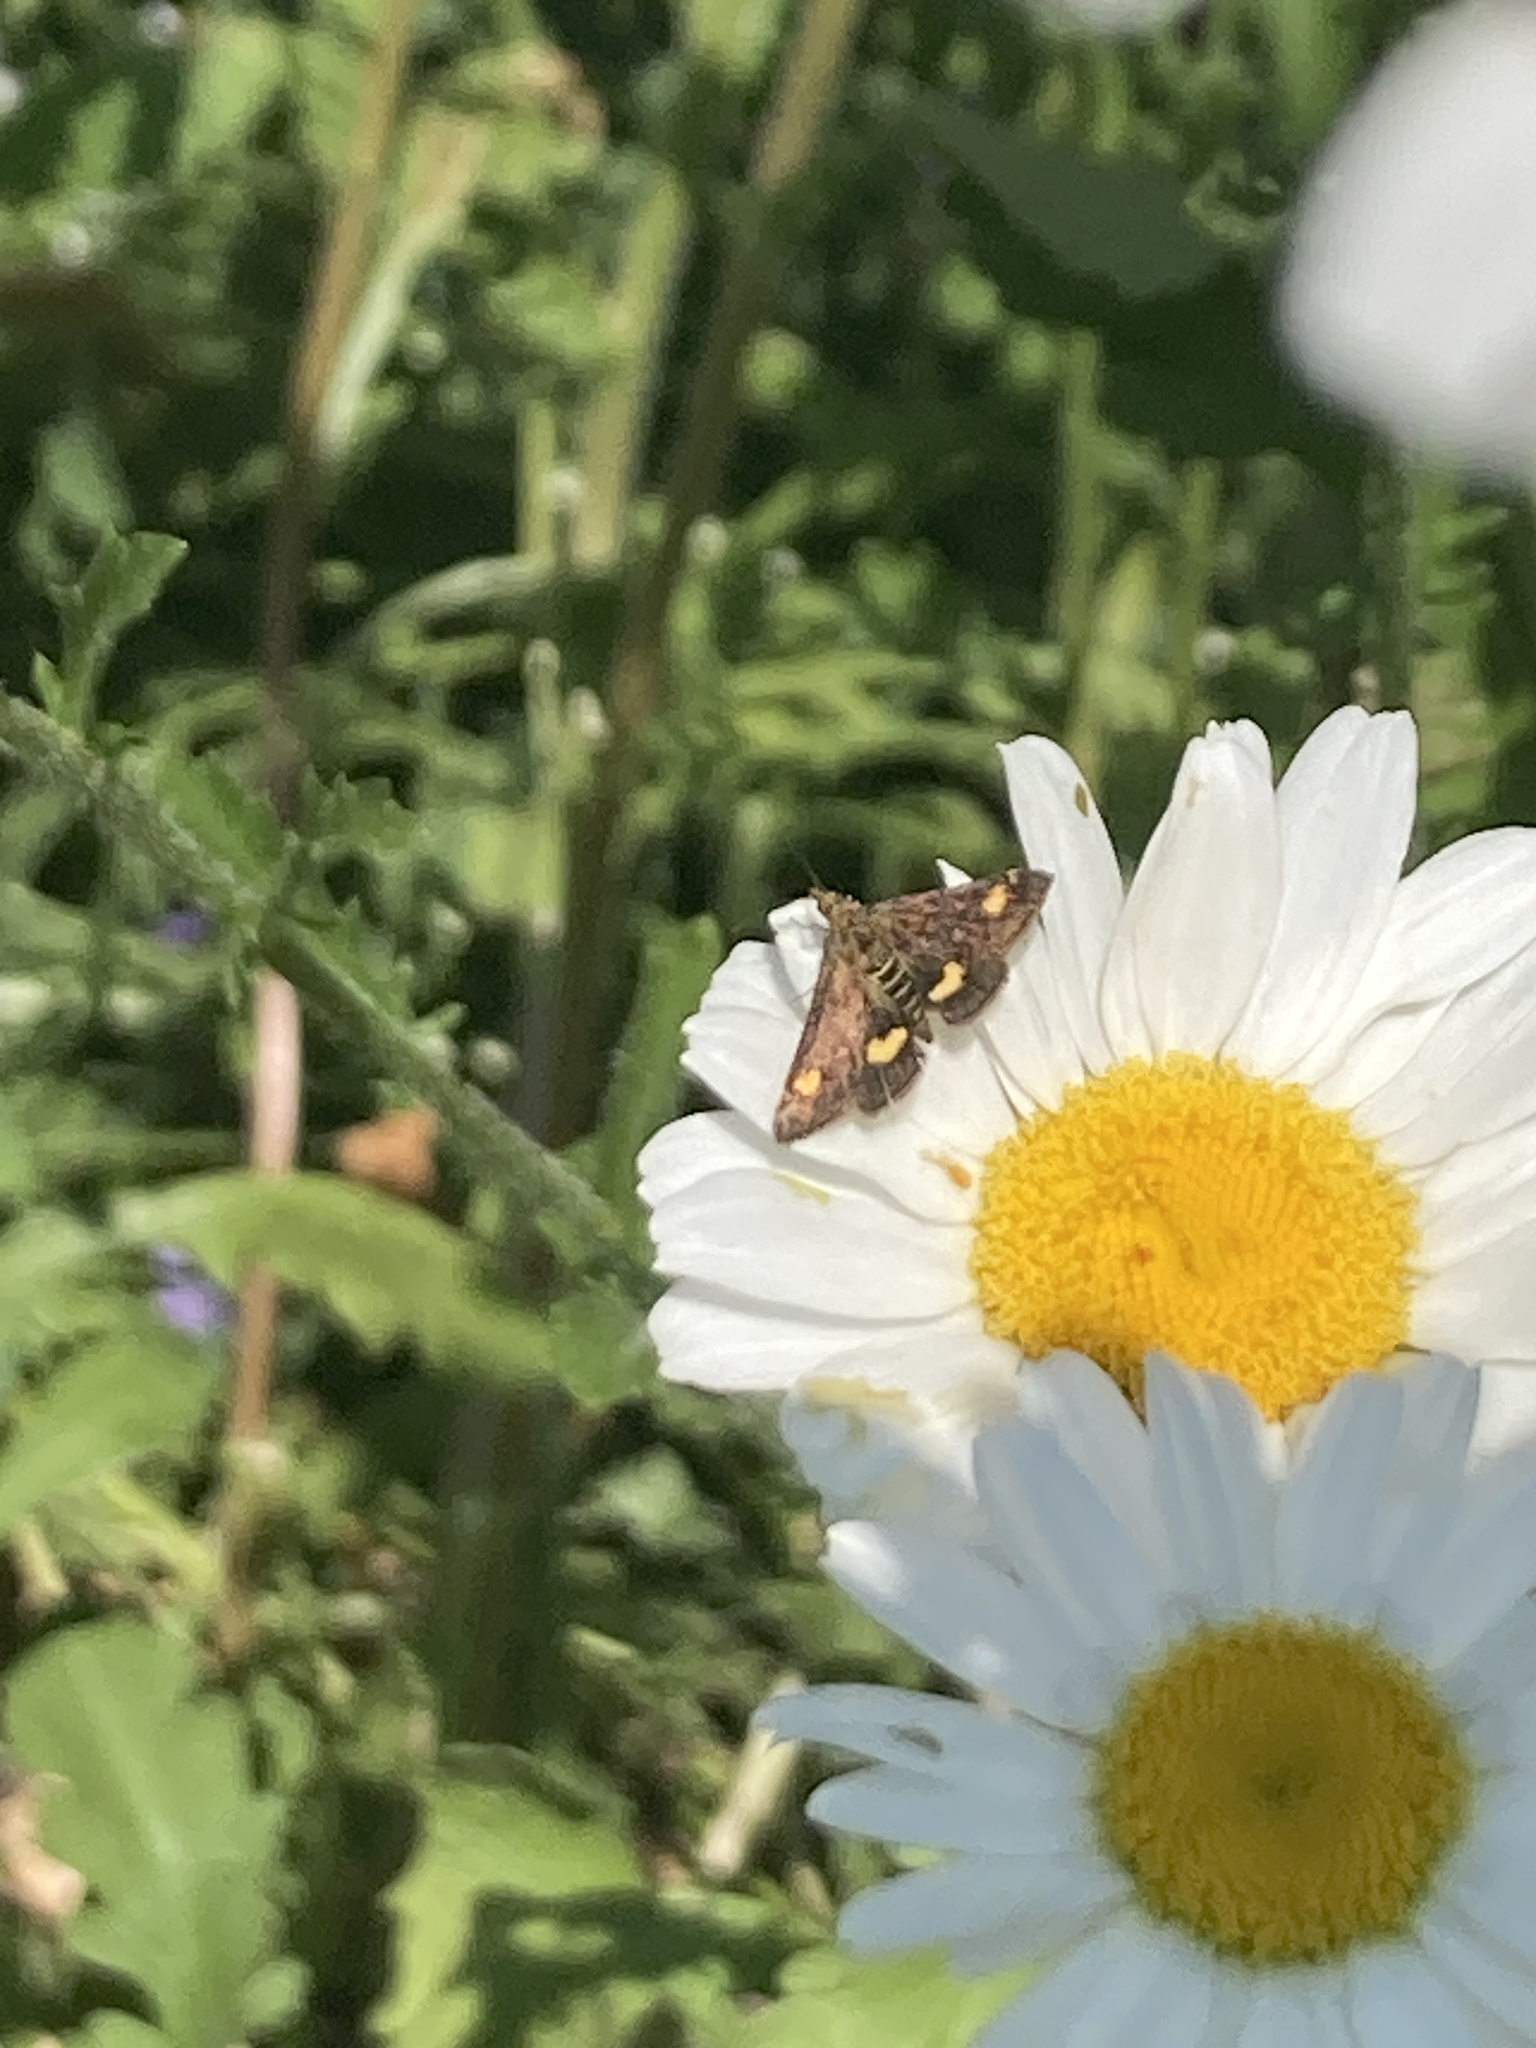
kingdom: Animalia
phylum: Arthropoda
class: Insecta
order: Lepidoptera
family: Crambidae
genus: Pyrausta
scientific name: Pyrausta aurata
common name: Small purple & gold
